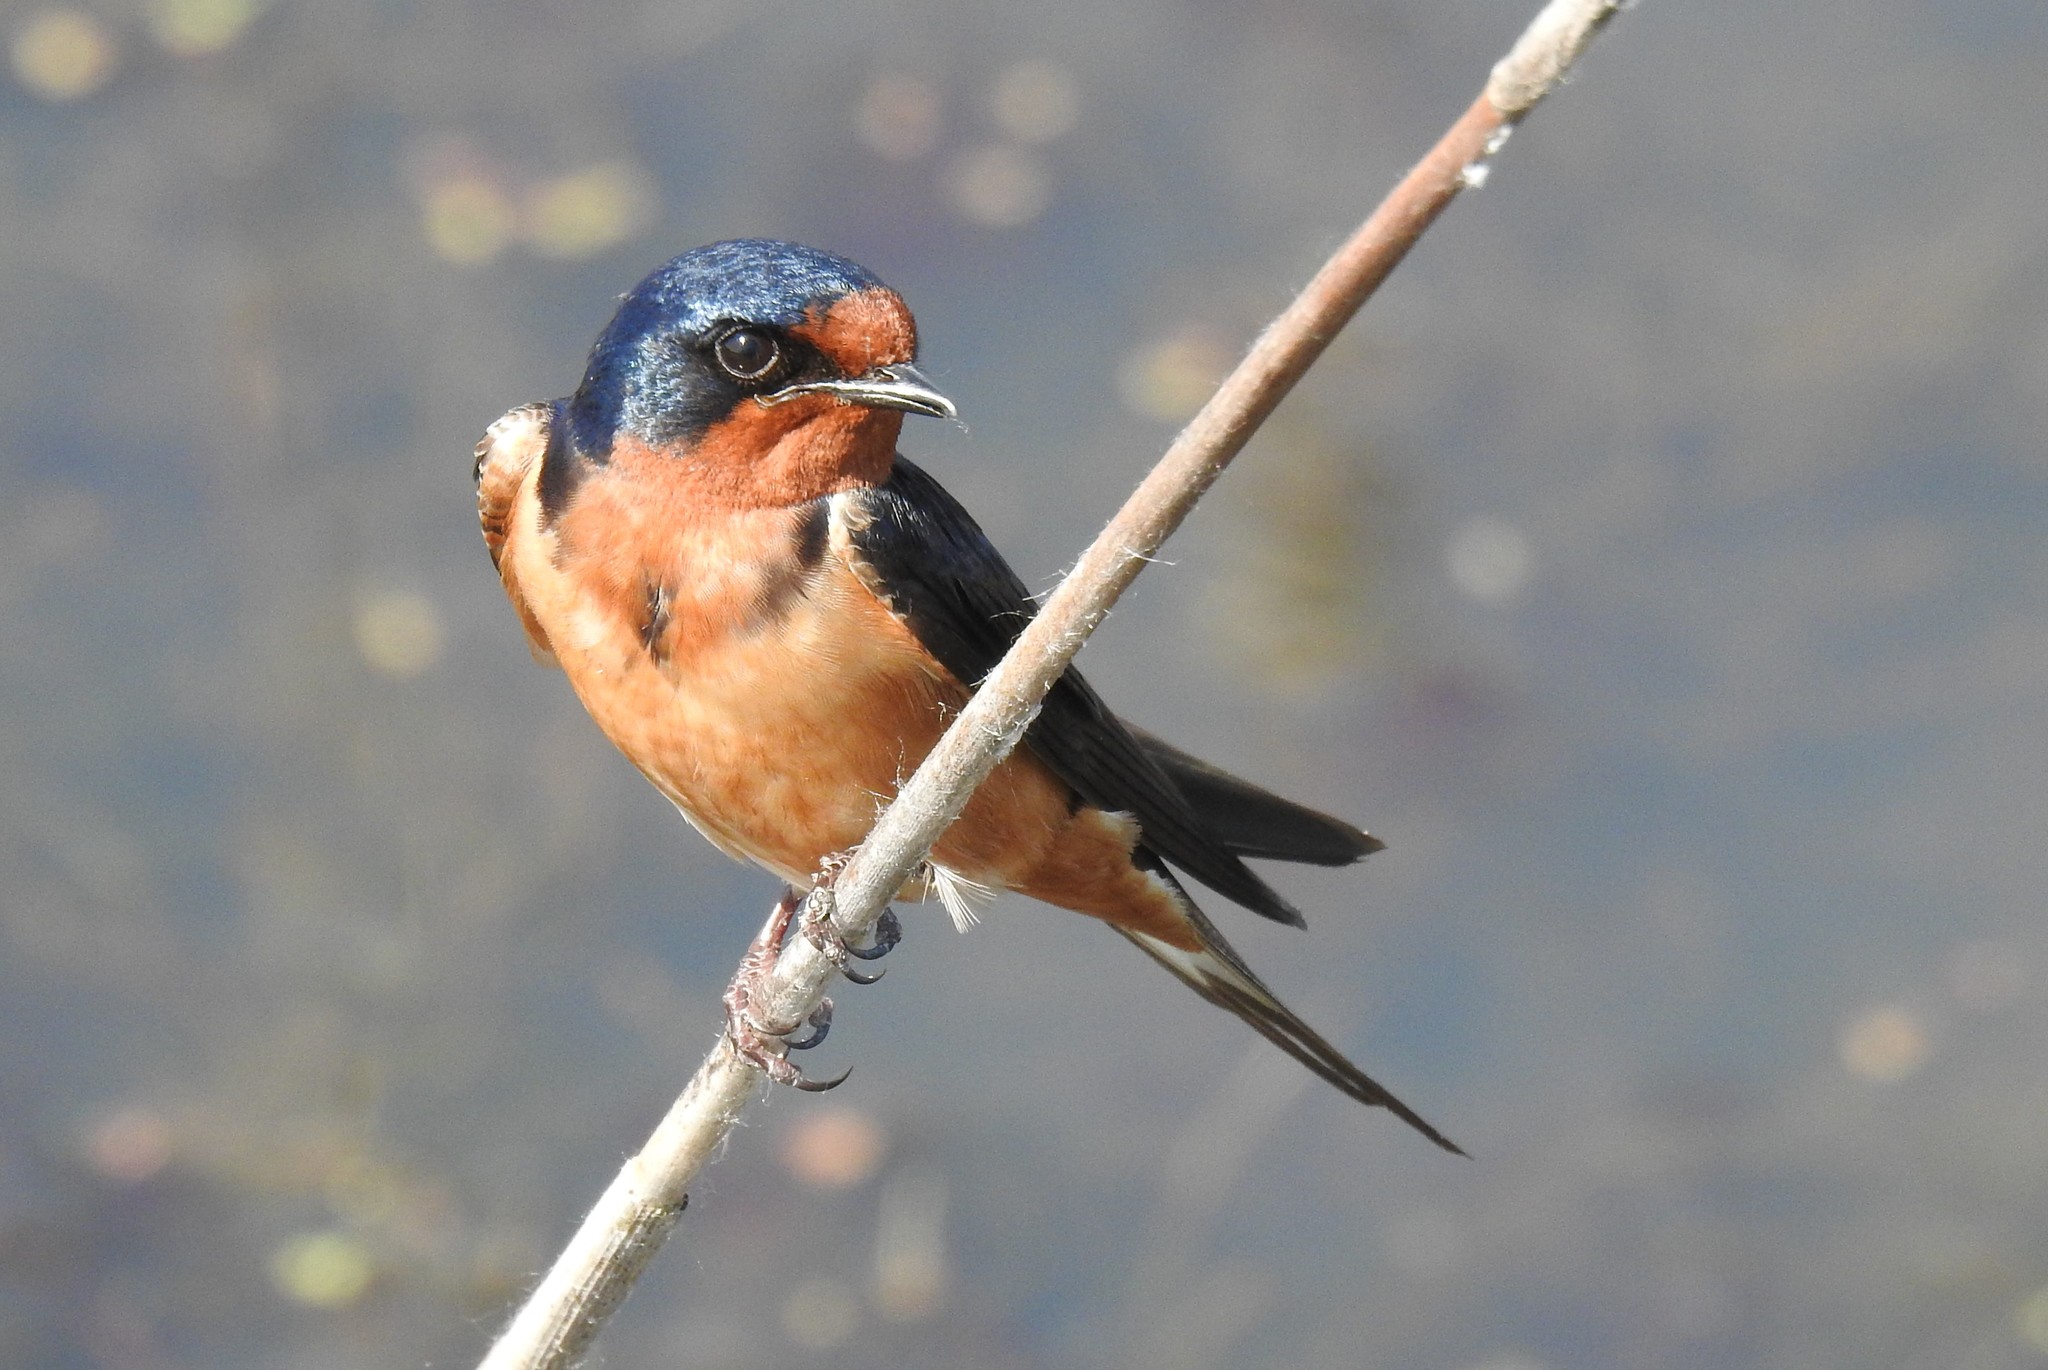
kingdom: Animalia
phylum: Chordata
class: Aves
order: Passeriformes
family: Hirundinidae
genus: Hirundo
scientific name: Hirundo rustica
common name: Barn swallow
